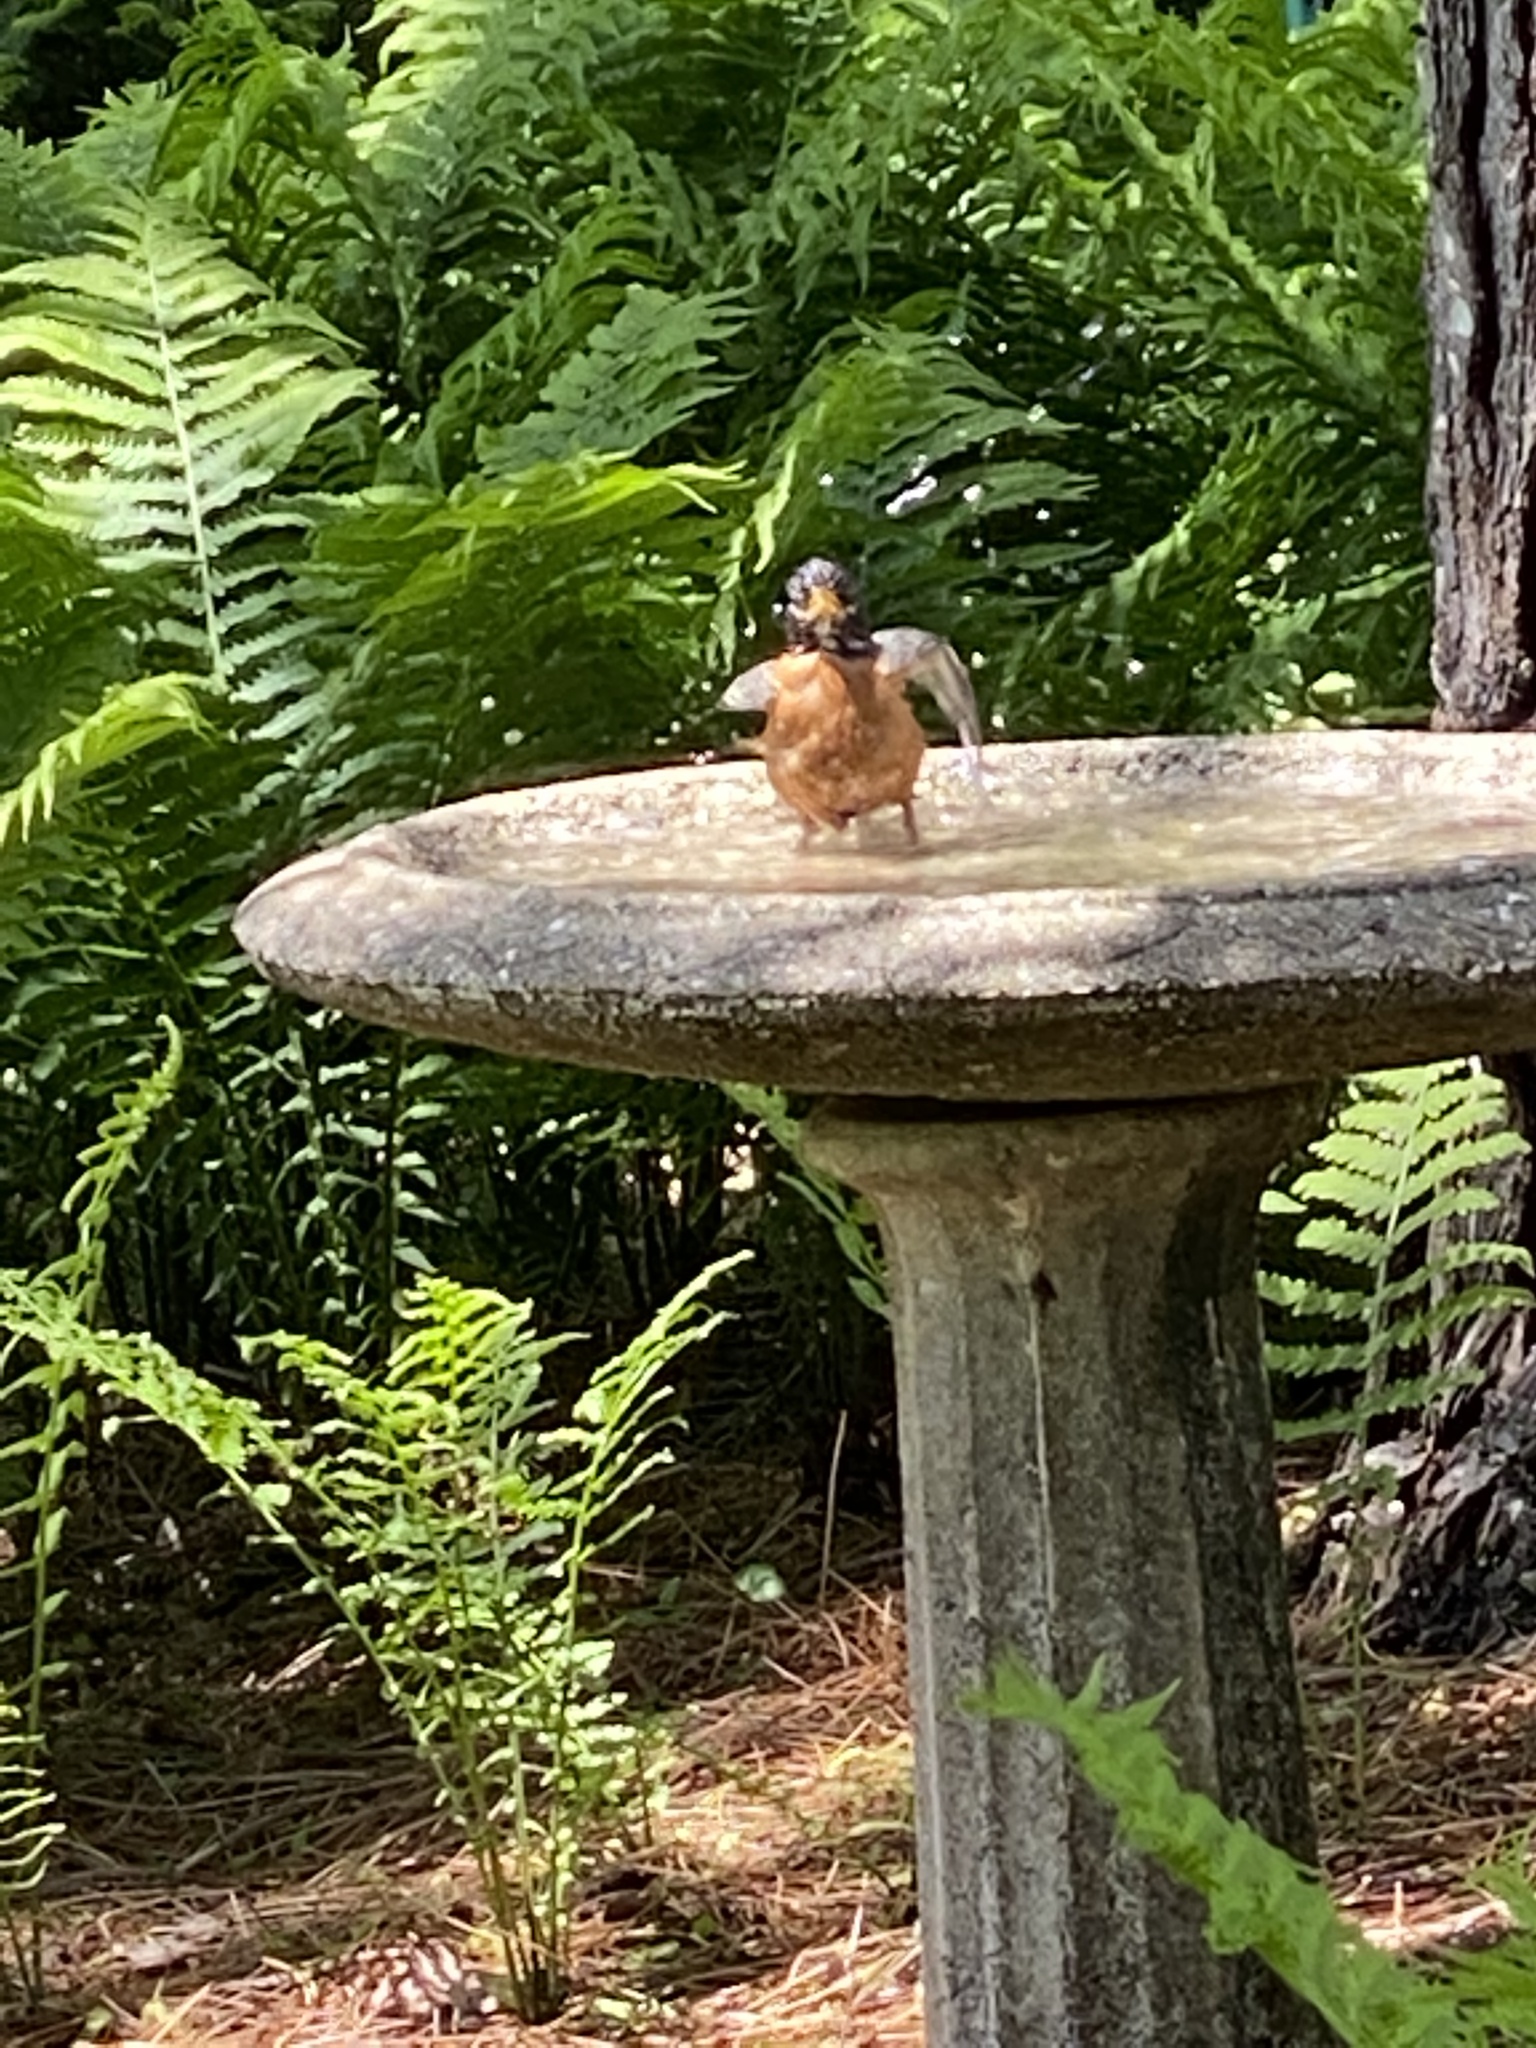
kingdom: Animalia
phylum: Chordata
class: Aves
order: Passeriformes
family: Turdidae
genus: Turdus
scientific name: Turdus migratorius
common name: American robin
